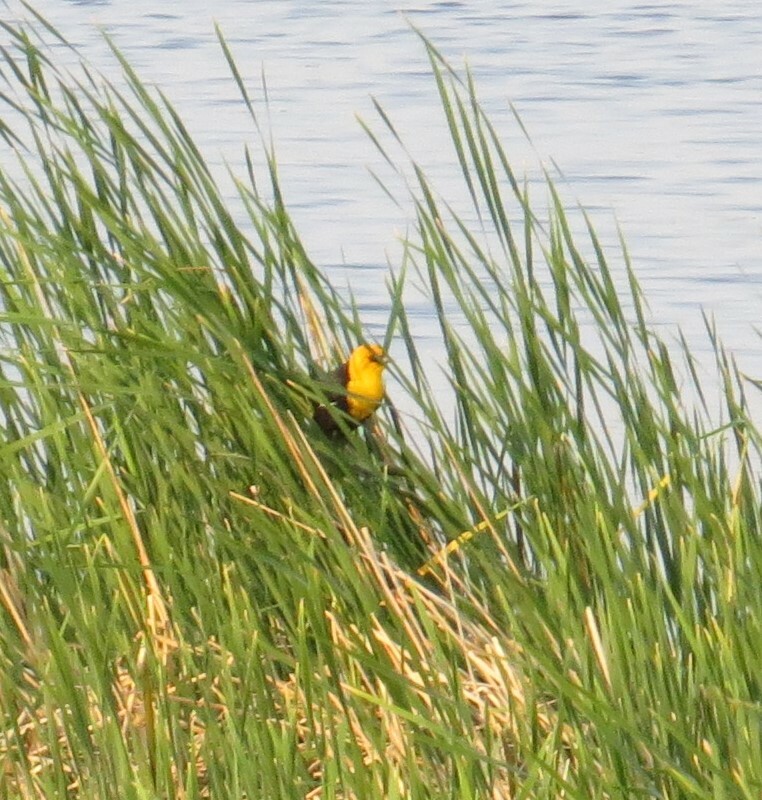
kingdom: Animalia
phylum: Chordata
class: Aves
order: Passeriformes
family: Icteridae
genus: Xanthocephalus
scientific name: Xanthocephalus xanthocephalus
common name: Yellow-headed blackbird
